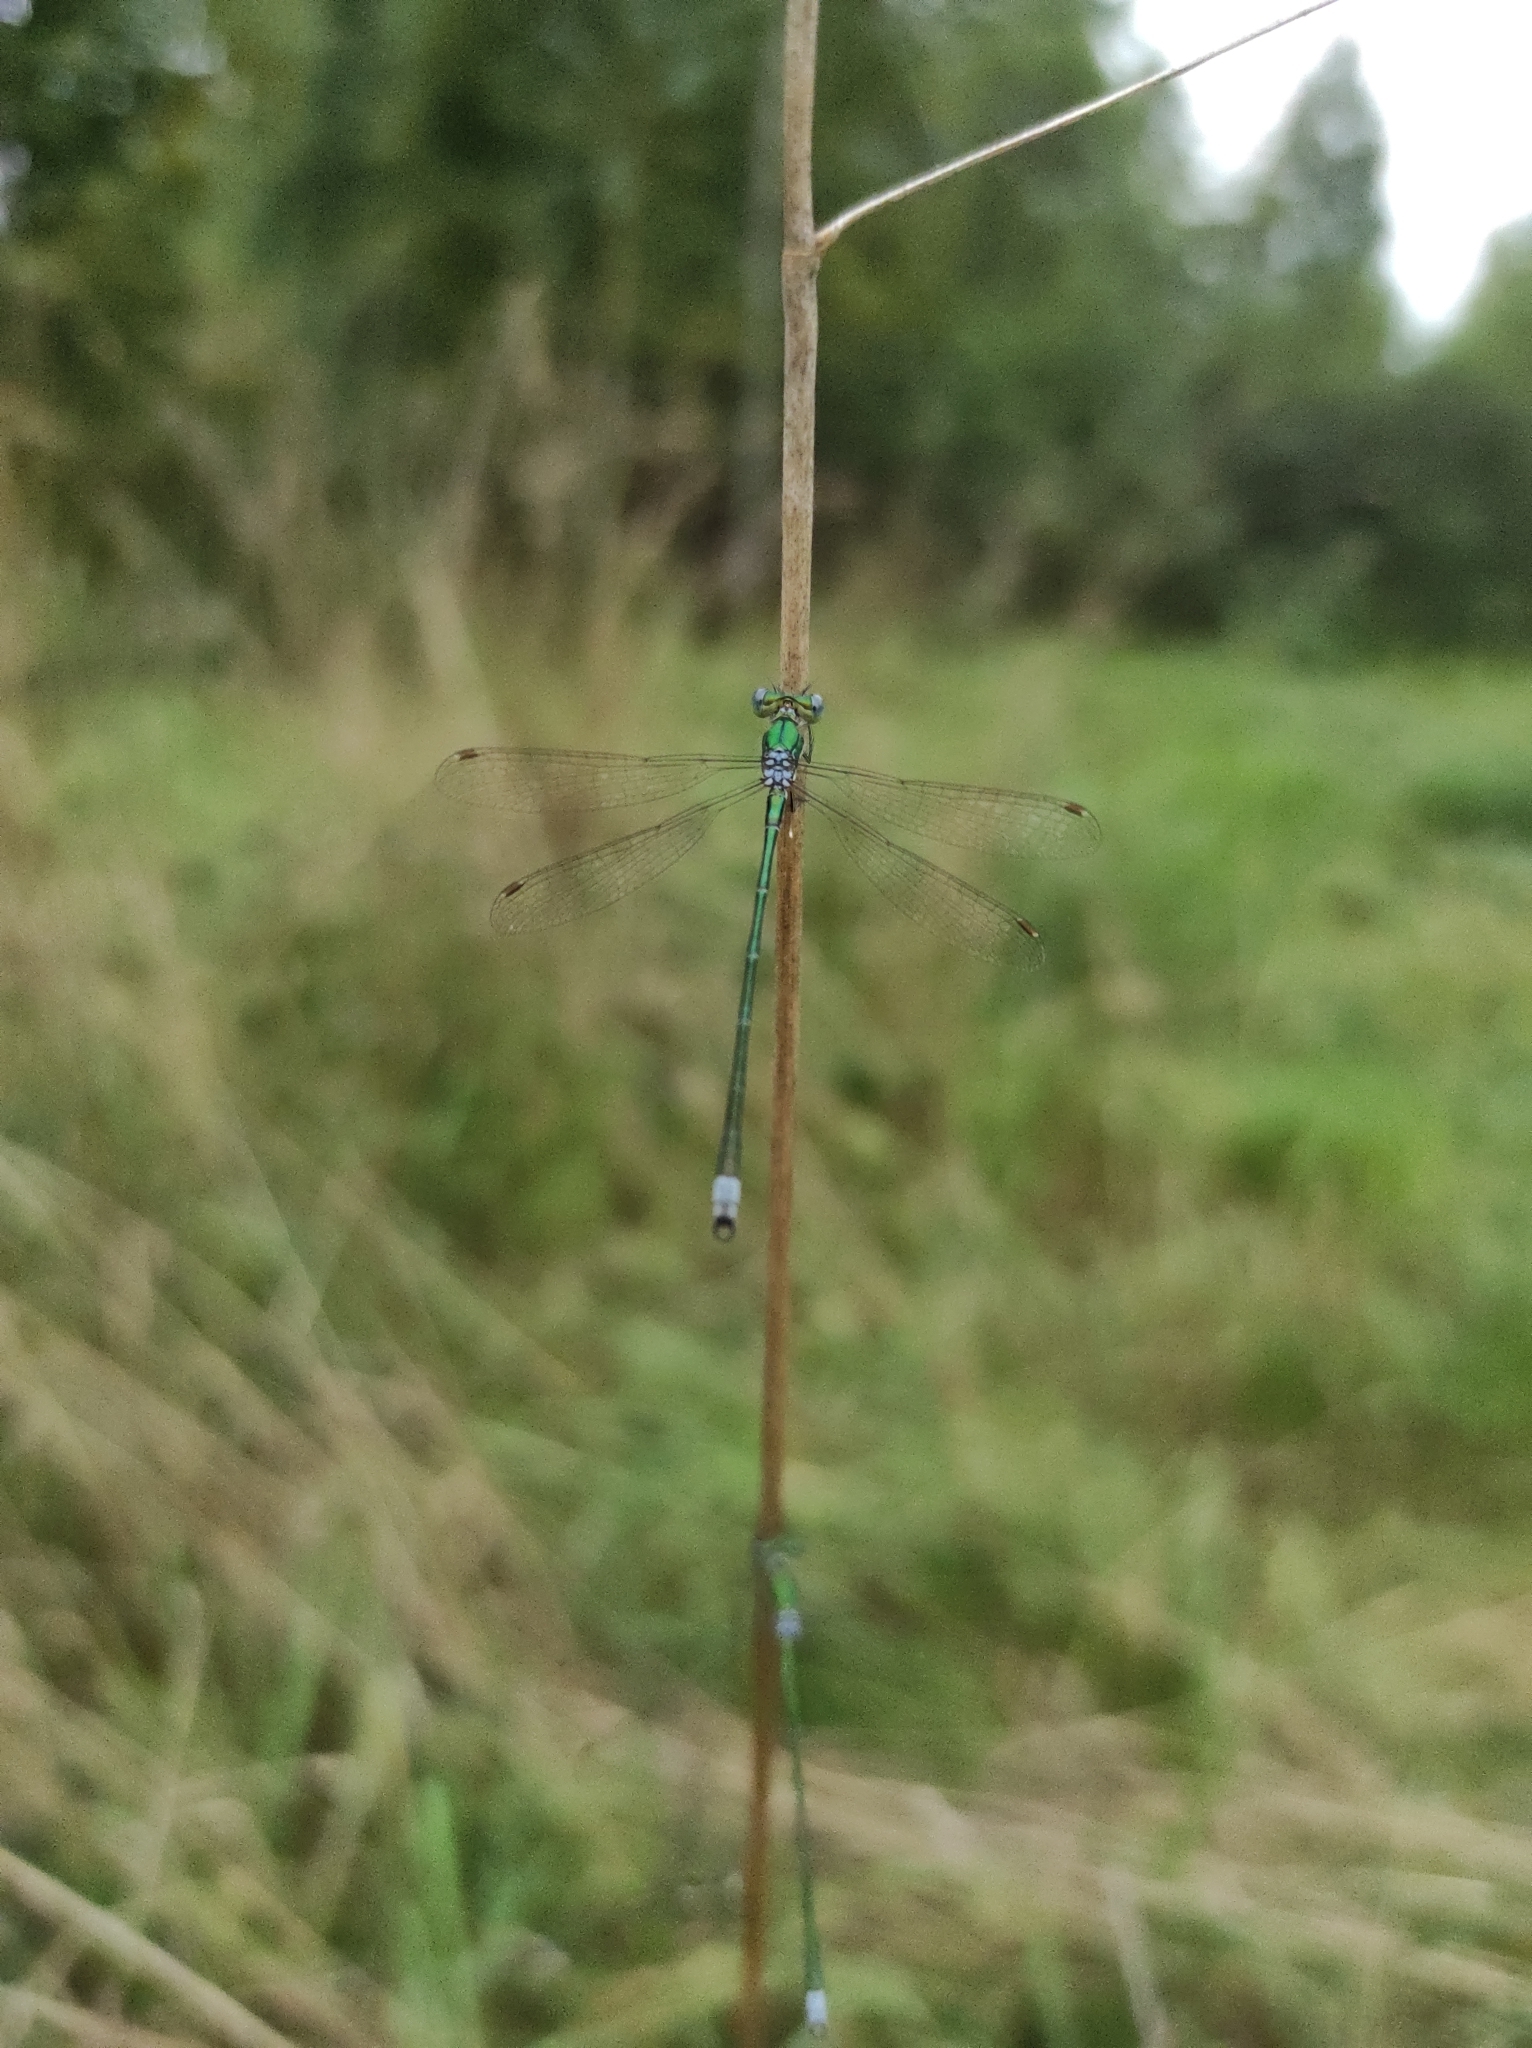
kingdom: Animalia
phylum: Arthropoda
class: Insecta
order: Odonata
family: Lestidae
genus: Lestes
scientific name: Lestes virens
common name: Small emerald spreadwing
